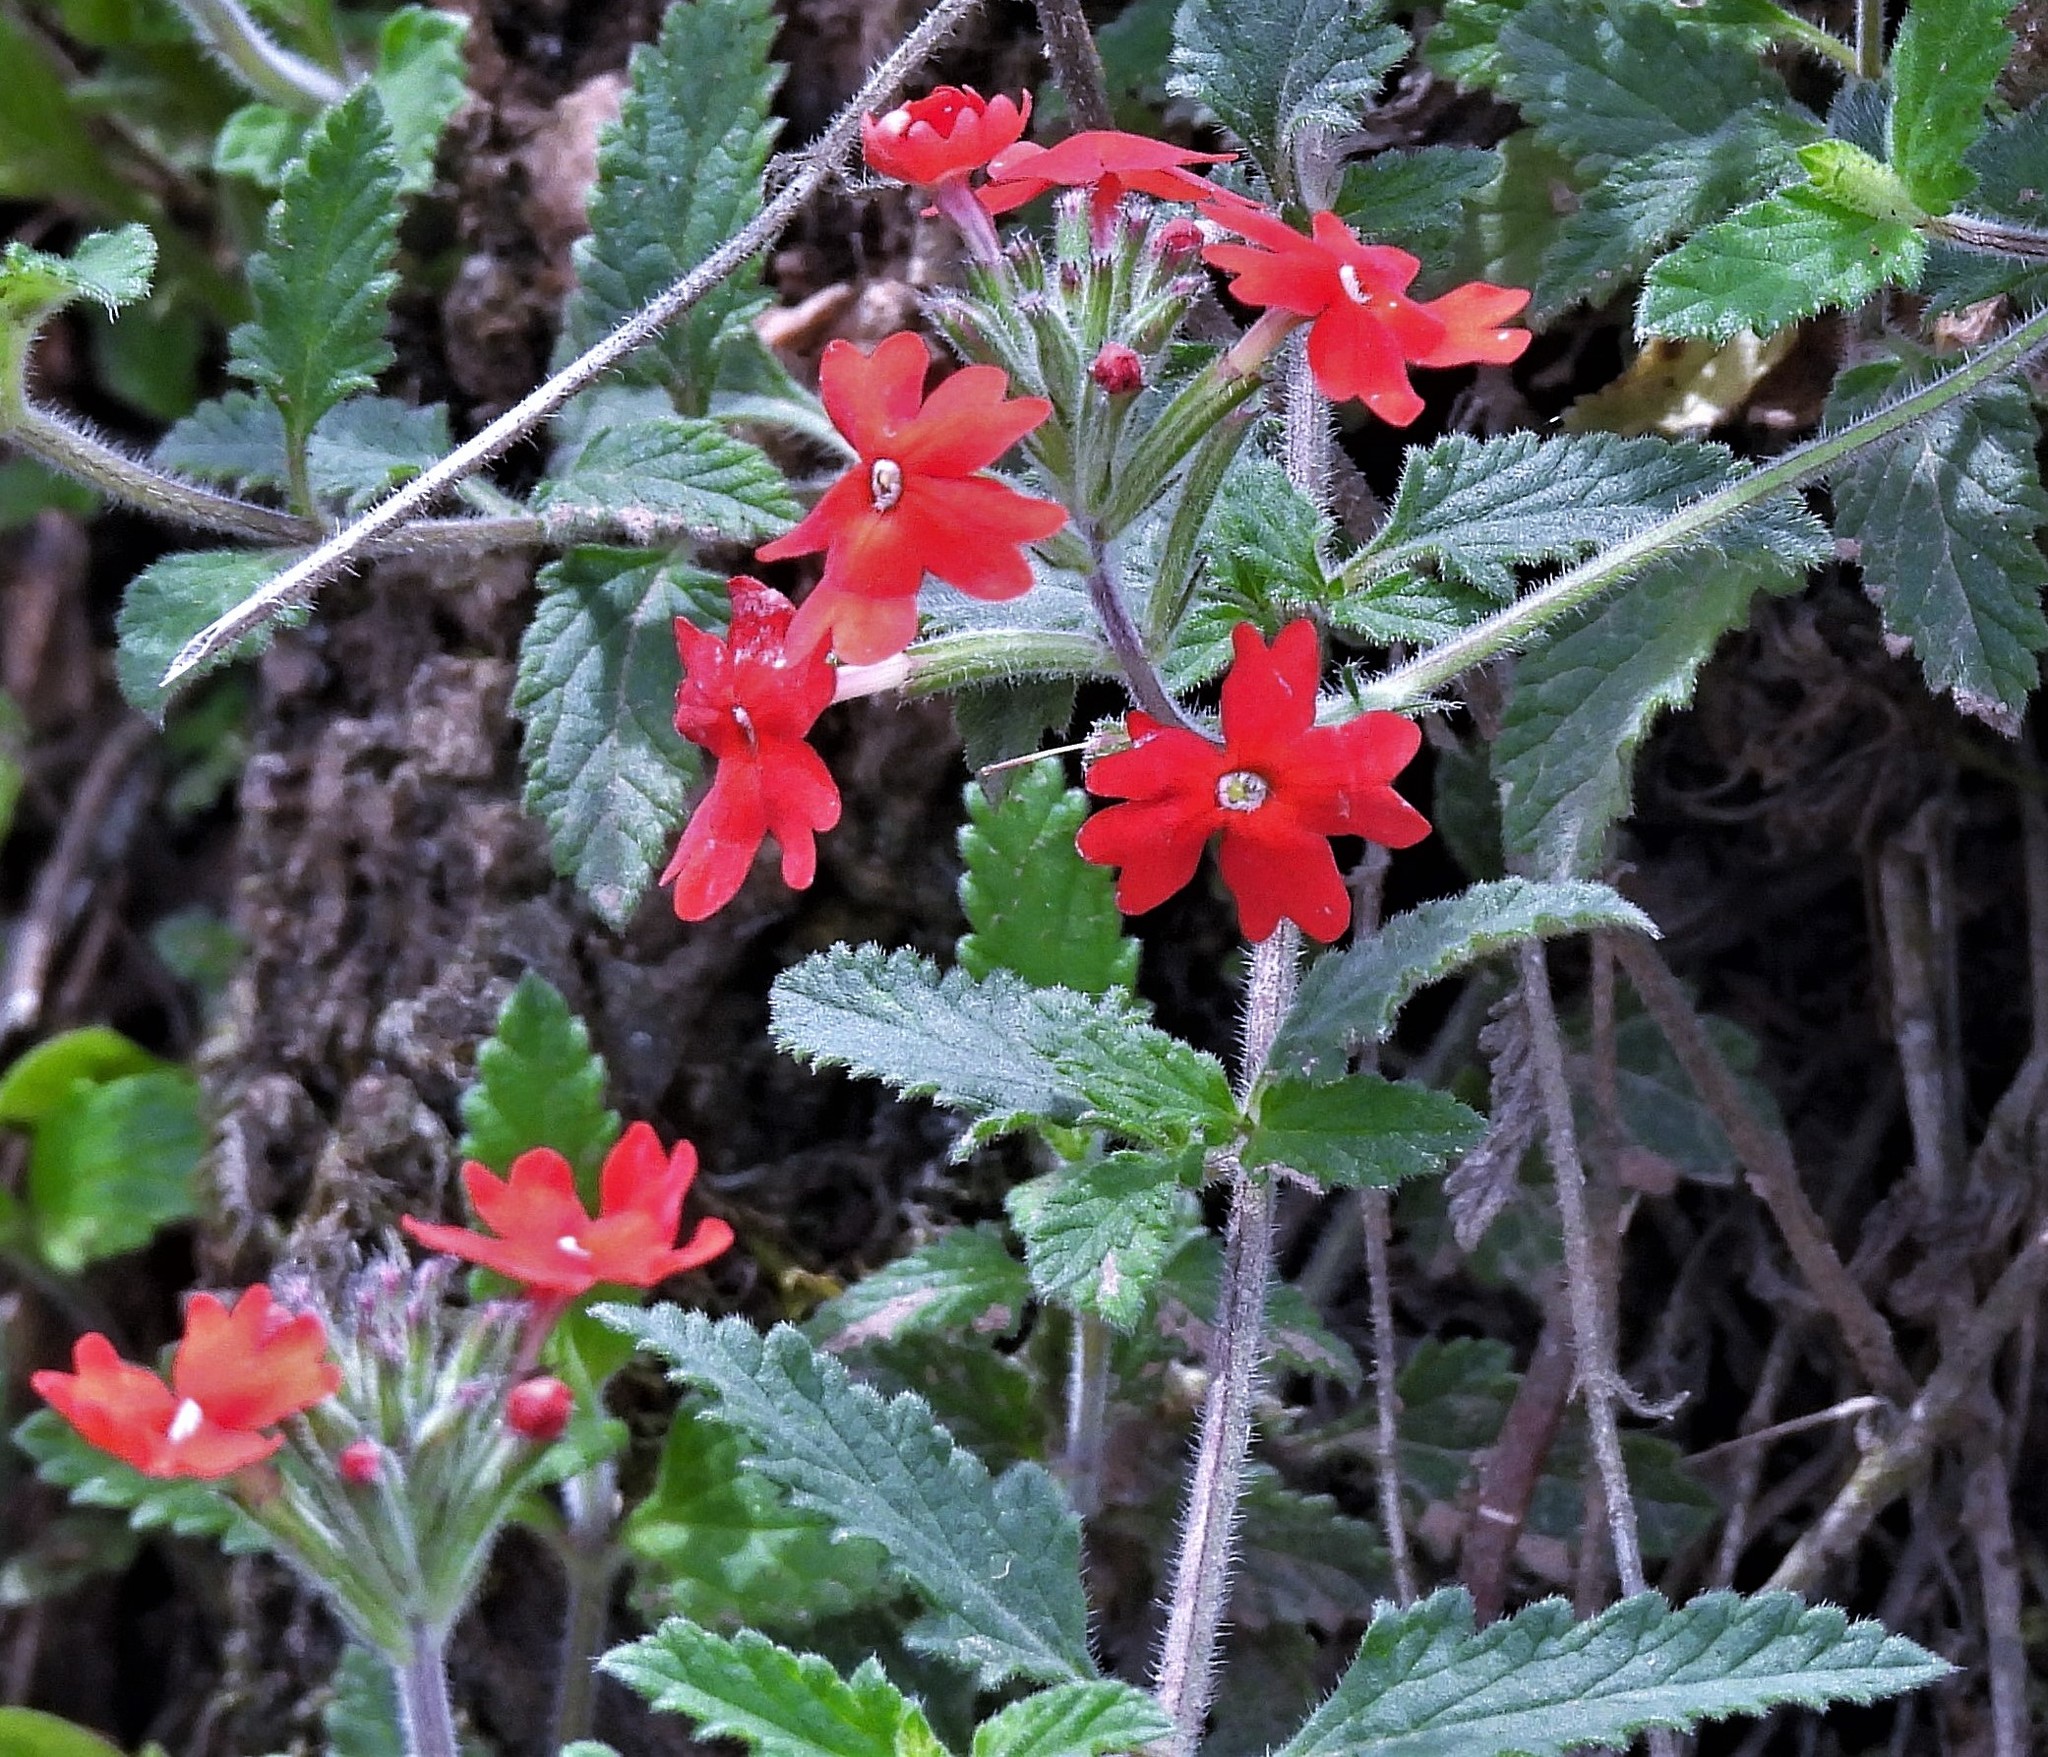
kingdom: Plantae
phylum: Tracheophyta
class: Magnoliopsida
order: Lamiales
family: Verbenaceae
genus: Verbena
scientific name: Verbena peruviana
